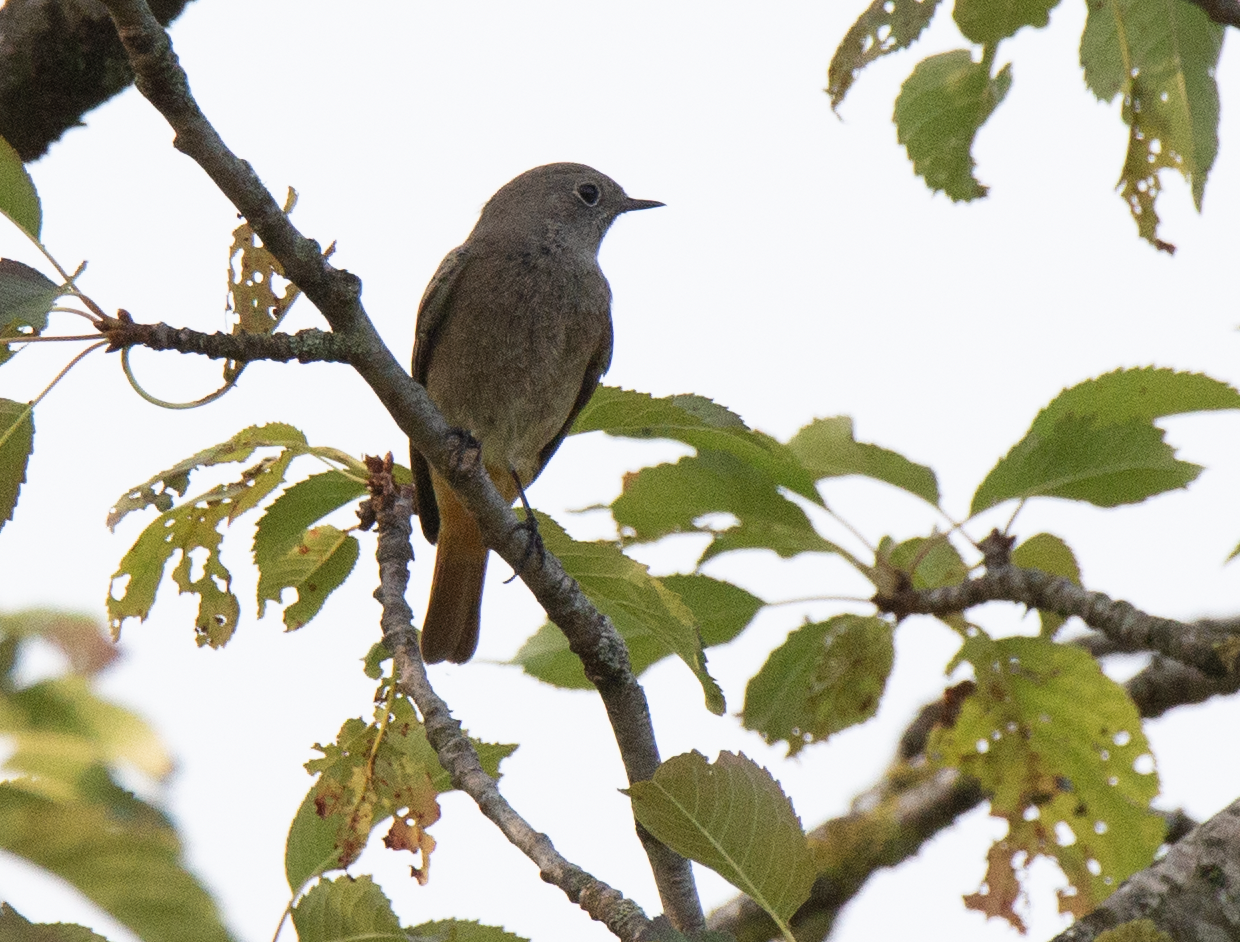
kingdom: Animalia
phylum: Chordata
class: Aves
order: Passeriformes
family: Muscicapidae
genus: Phoenicurus
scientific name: Phoenicurus ochruros
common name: Black redstart
